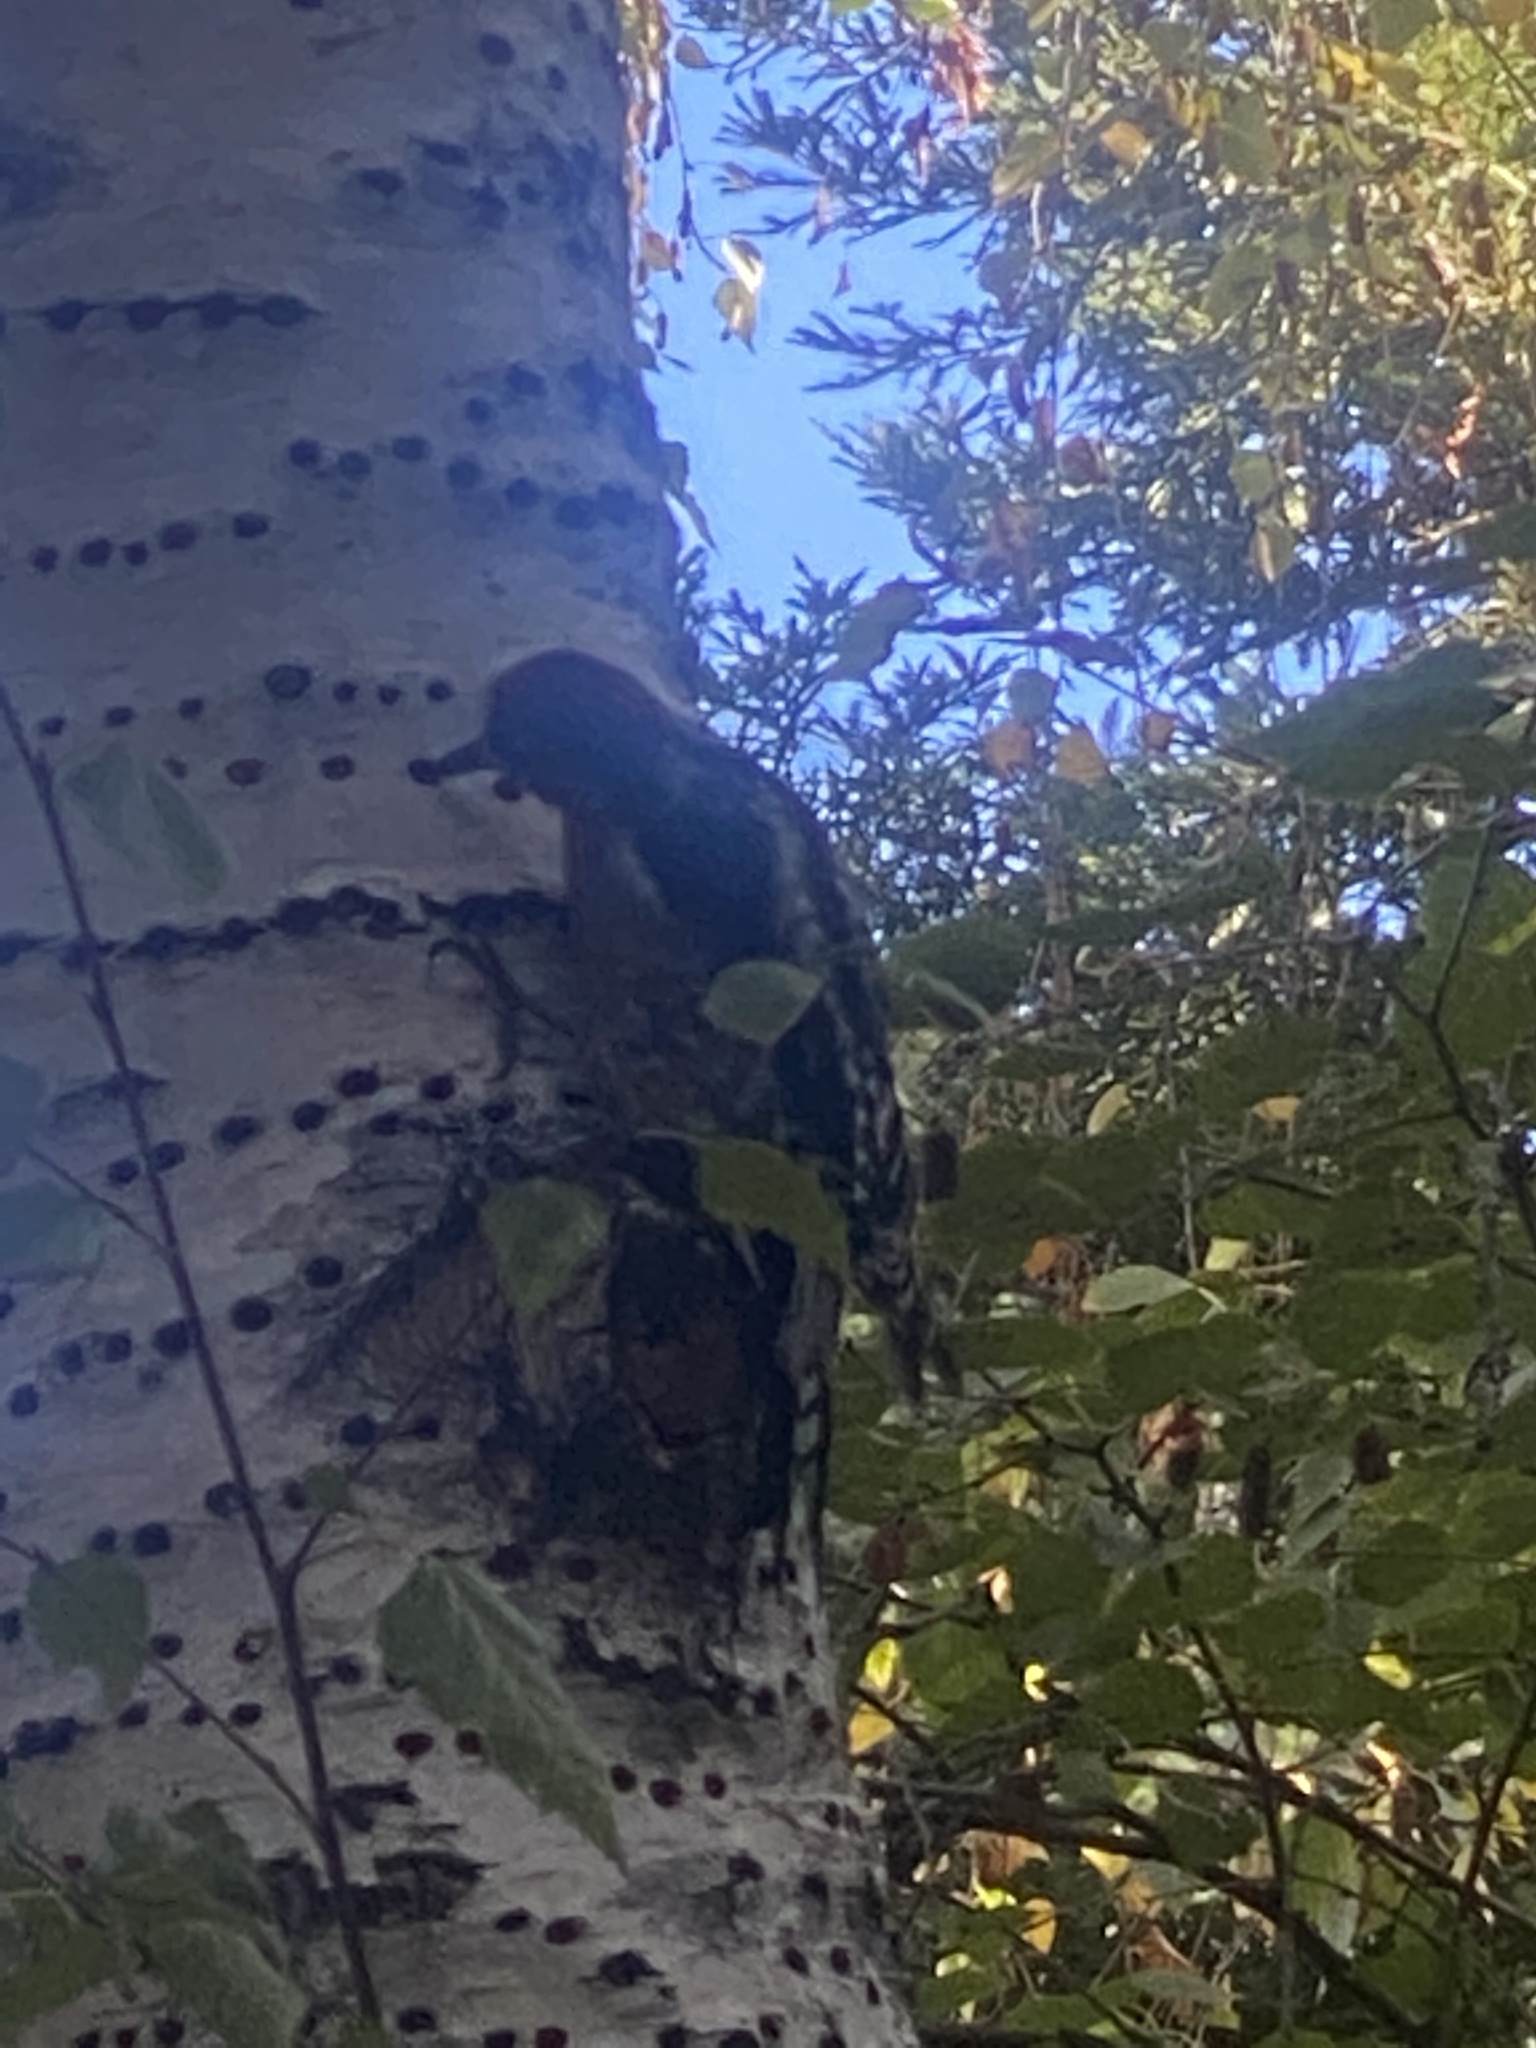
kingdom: Animalia
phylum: Chordata
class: Aves
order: Piciformes
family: Picidae
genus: Sphyrapicus
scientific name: Sphyrapicus
